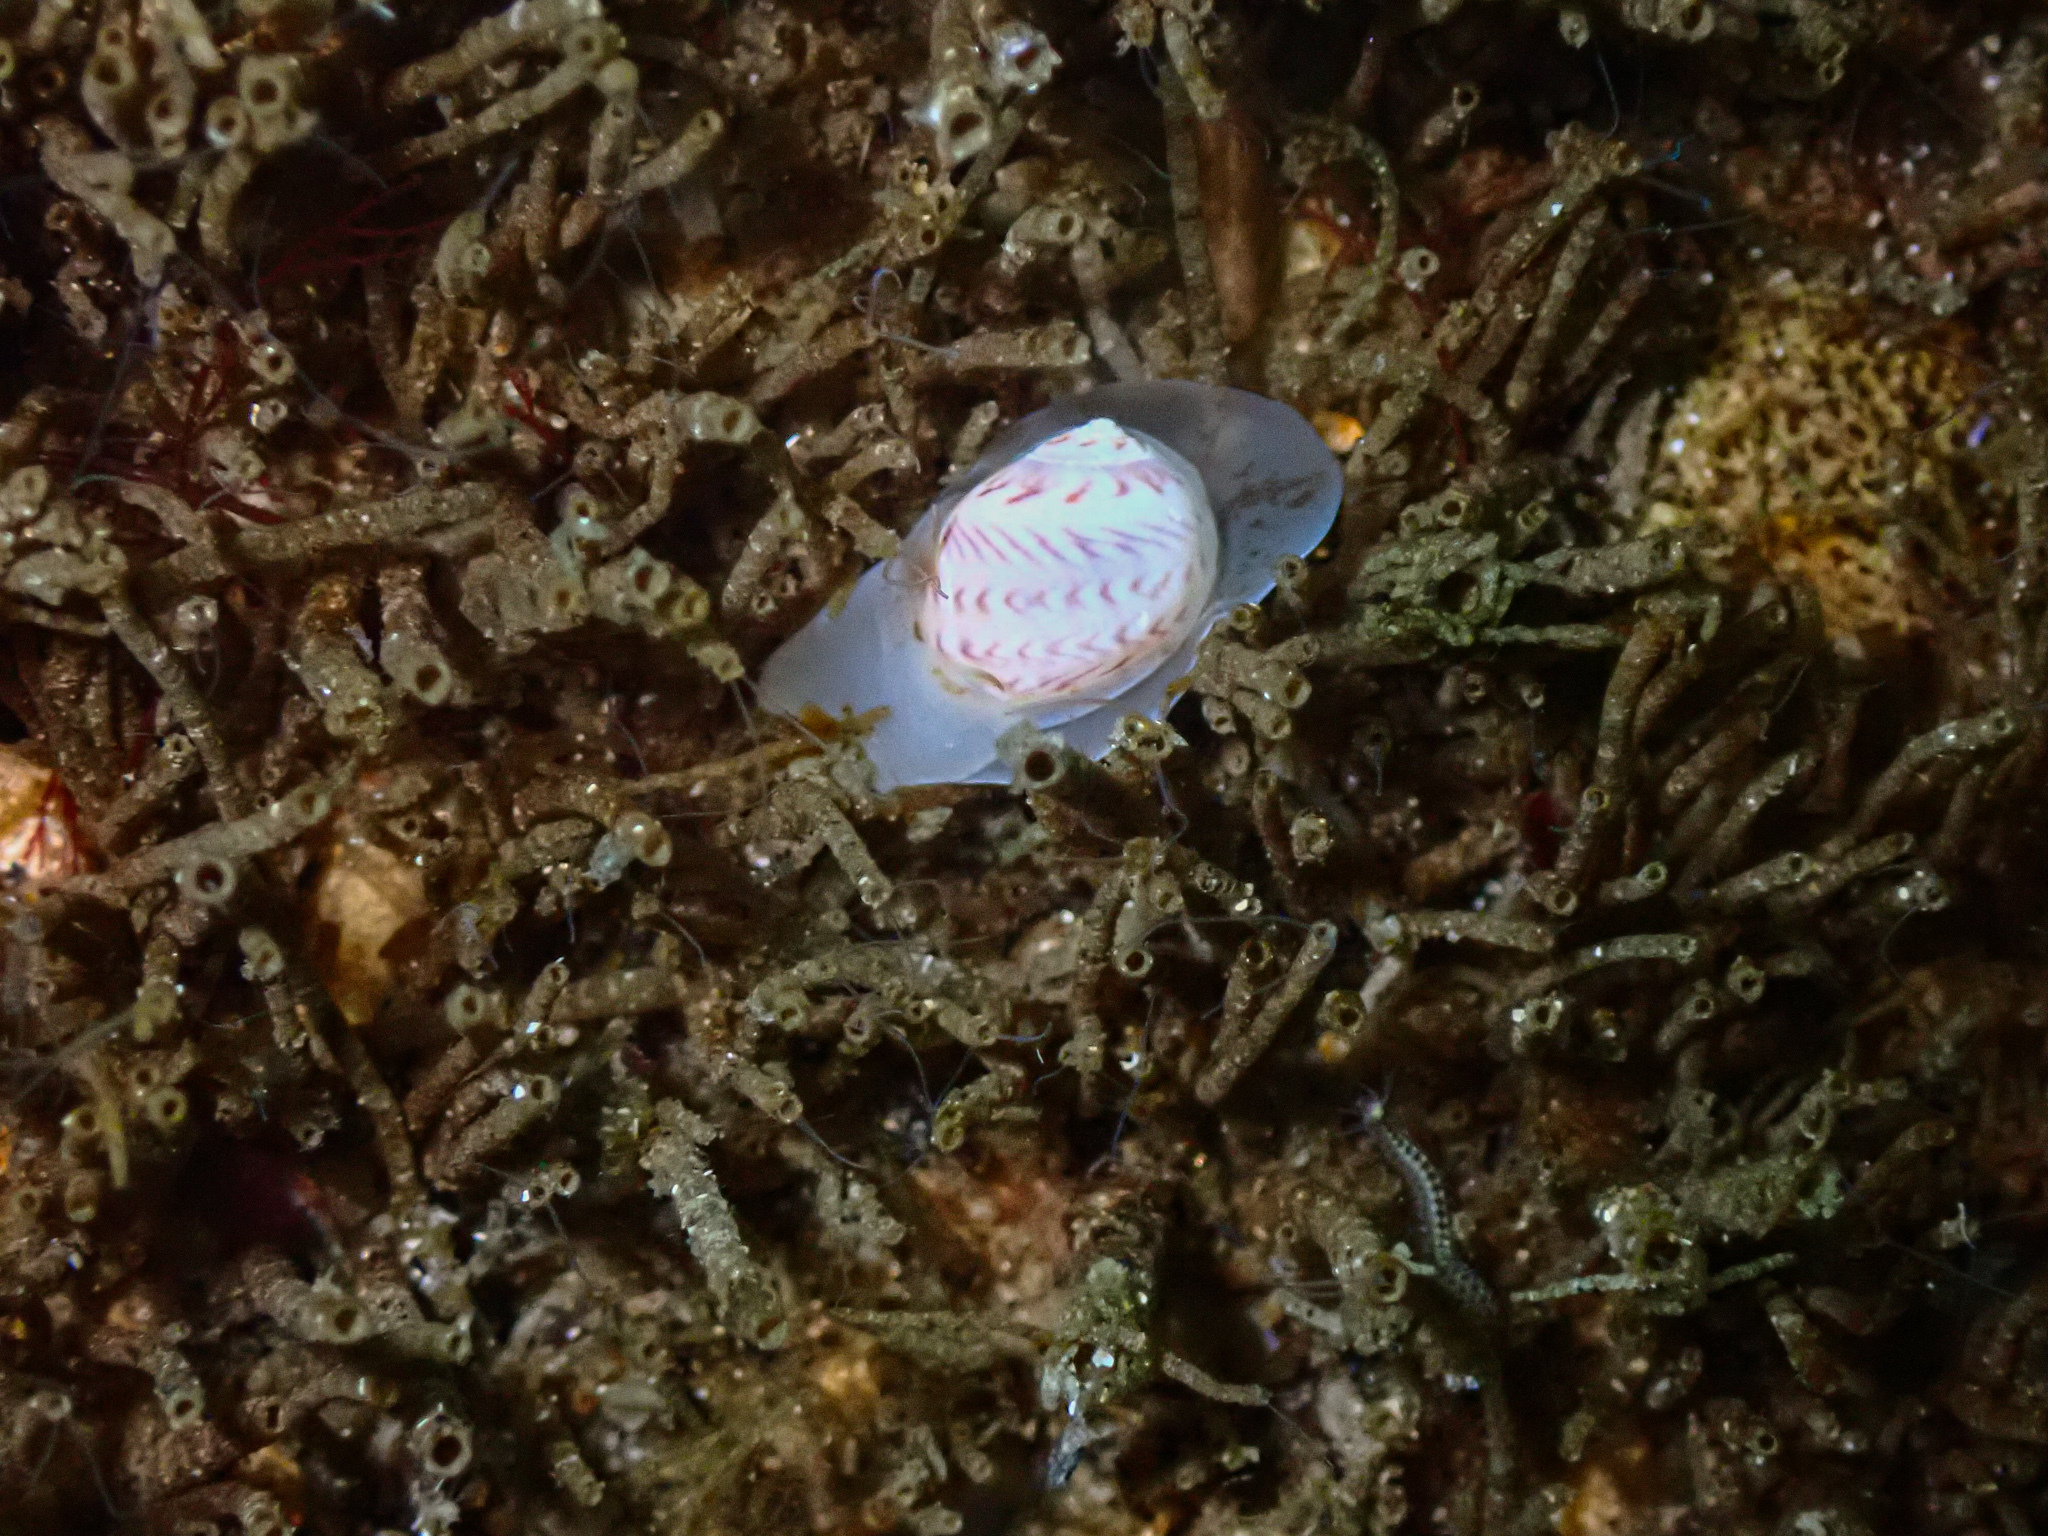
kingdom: Animalia
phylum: Mollusca
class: Gastropoda
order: Littorinimorpha
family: Naticidae
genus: Euspira
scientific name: Euspira nitida
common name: Alder's necklace shell
